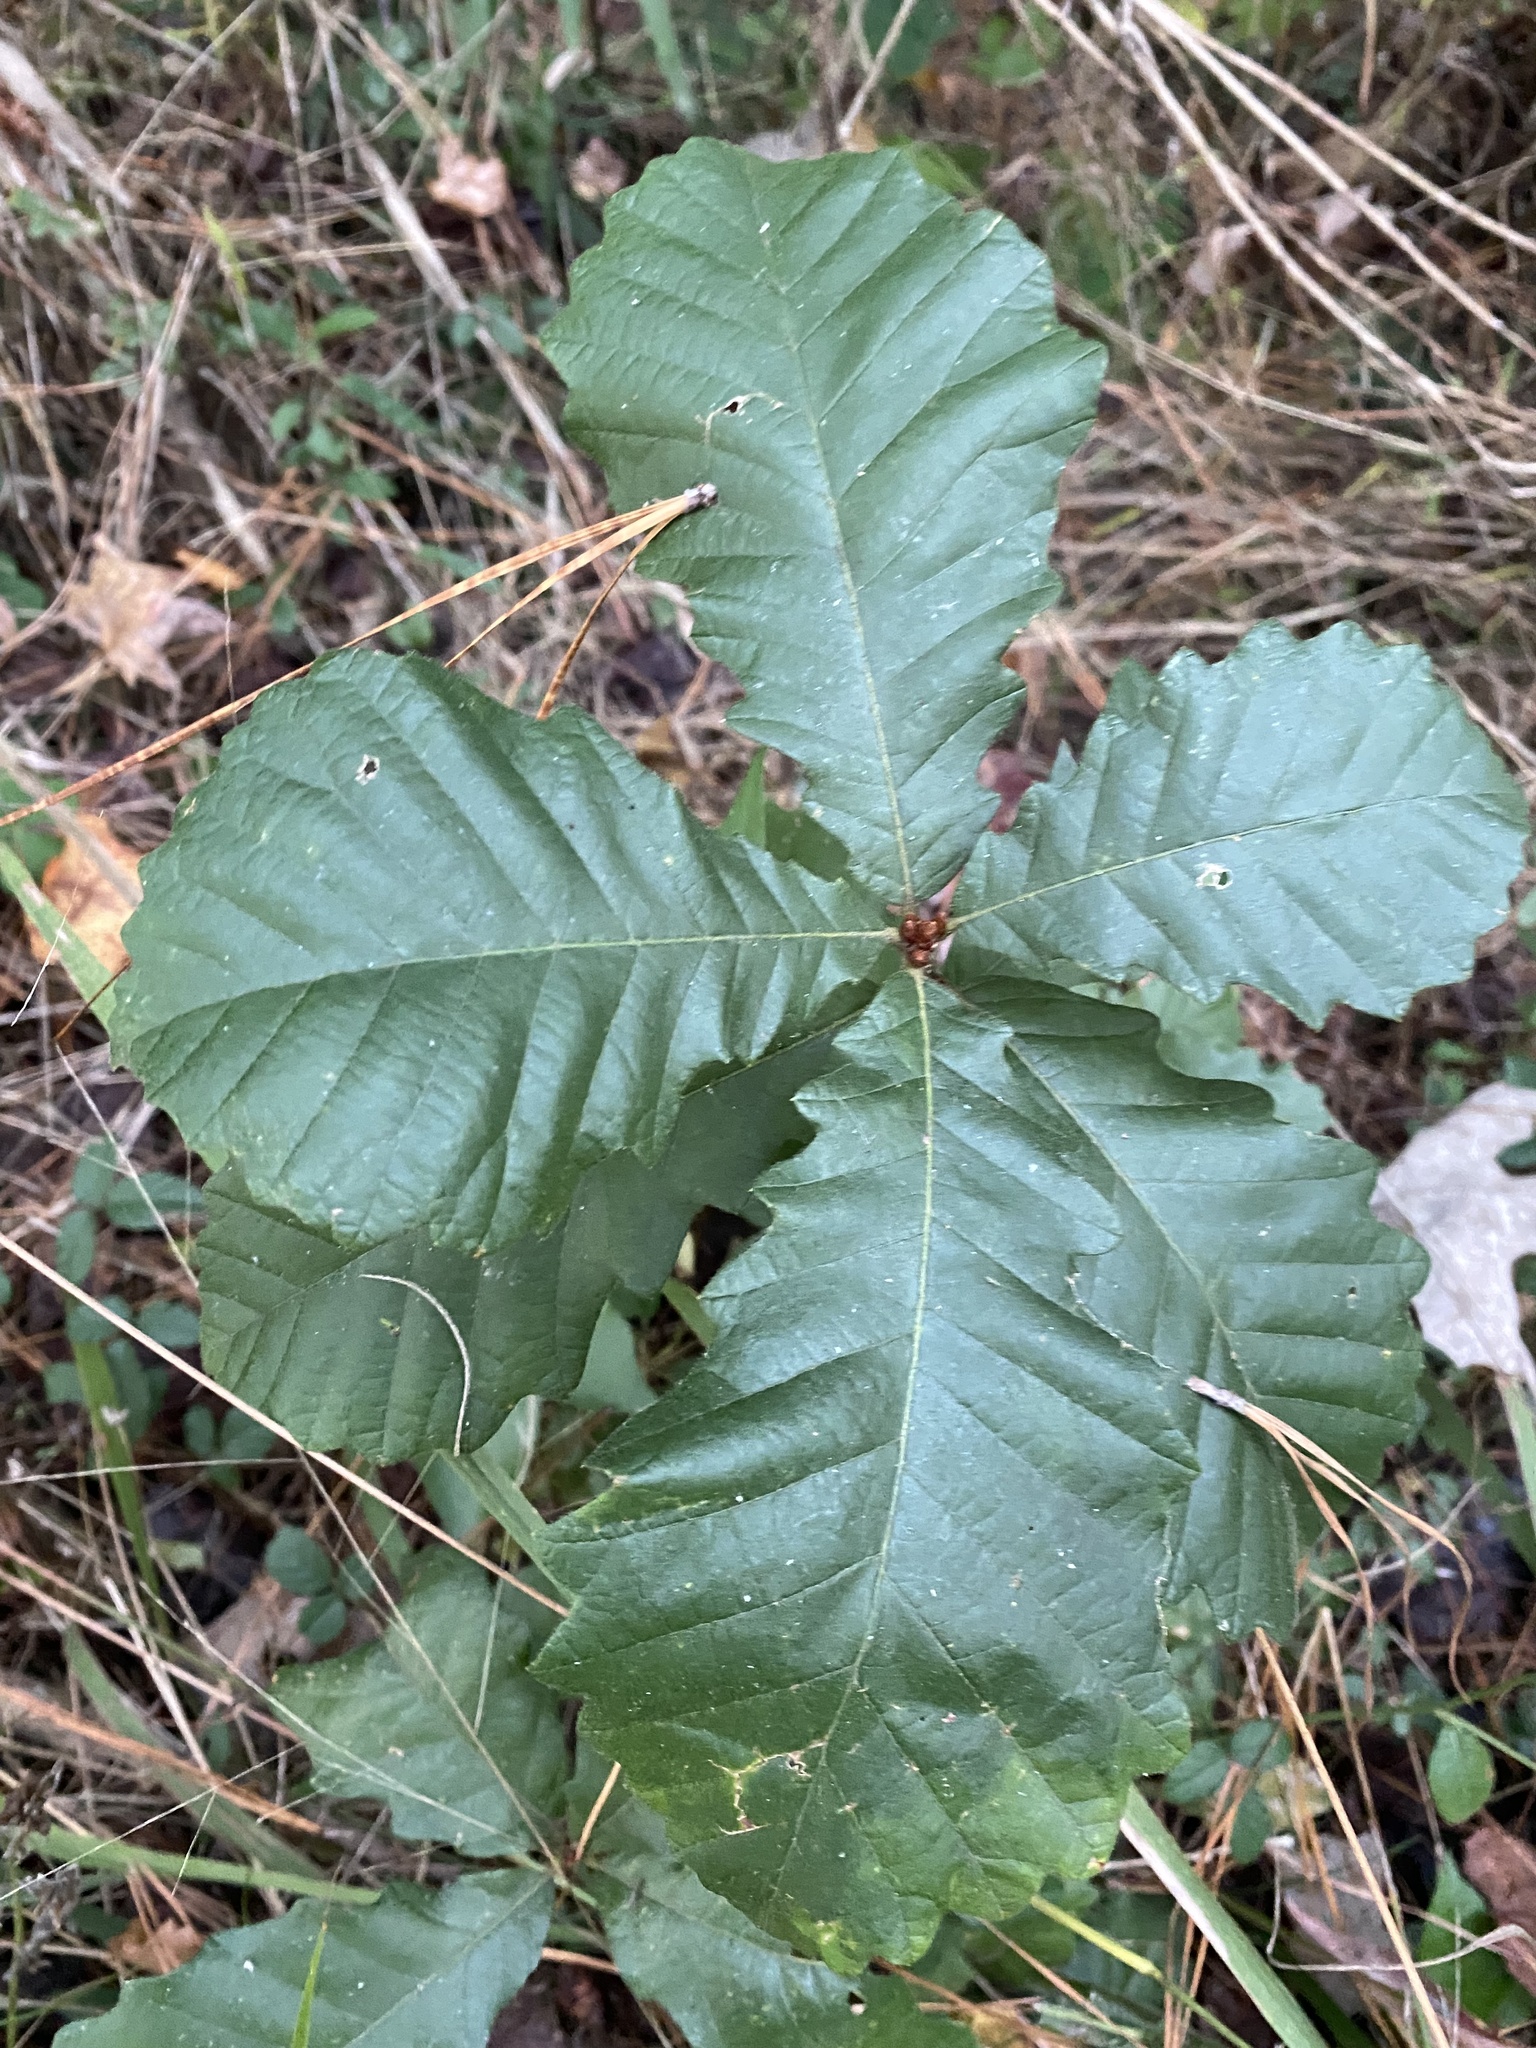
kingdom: Plantae
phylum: Tracheophyta
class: Magnoliopsida
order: Fagales
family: Fagaceae
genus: Quercus
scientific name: Quercus michauxii
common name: Swamp chestnut oak
